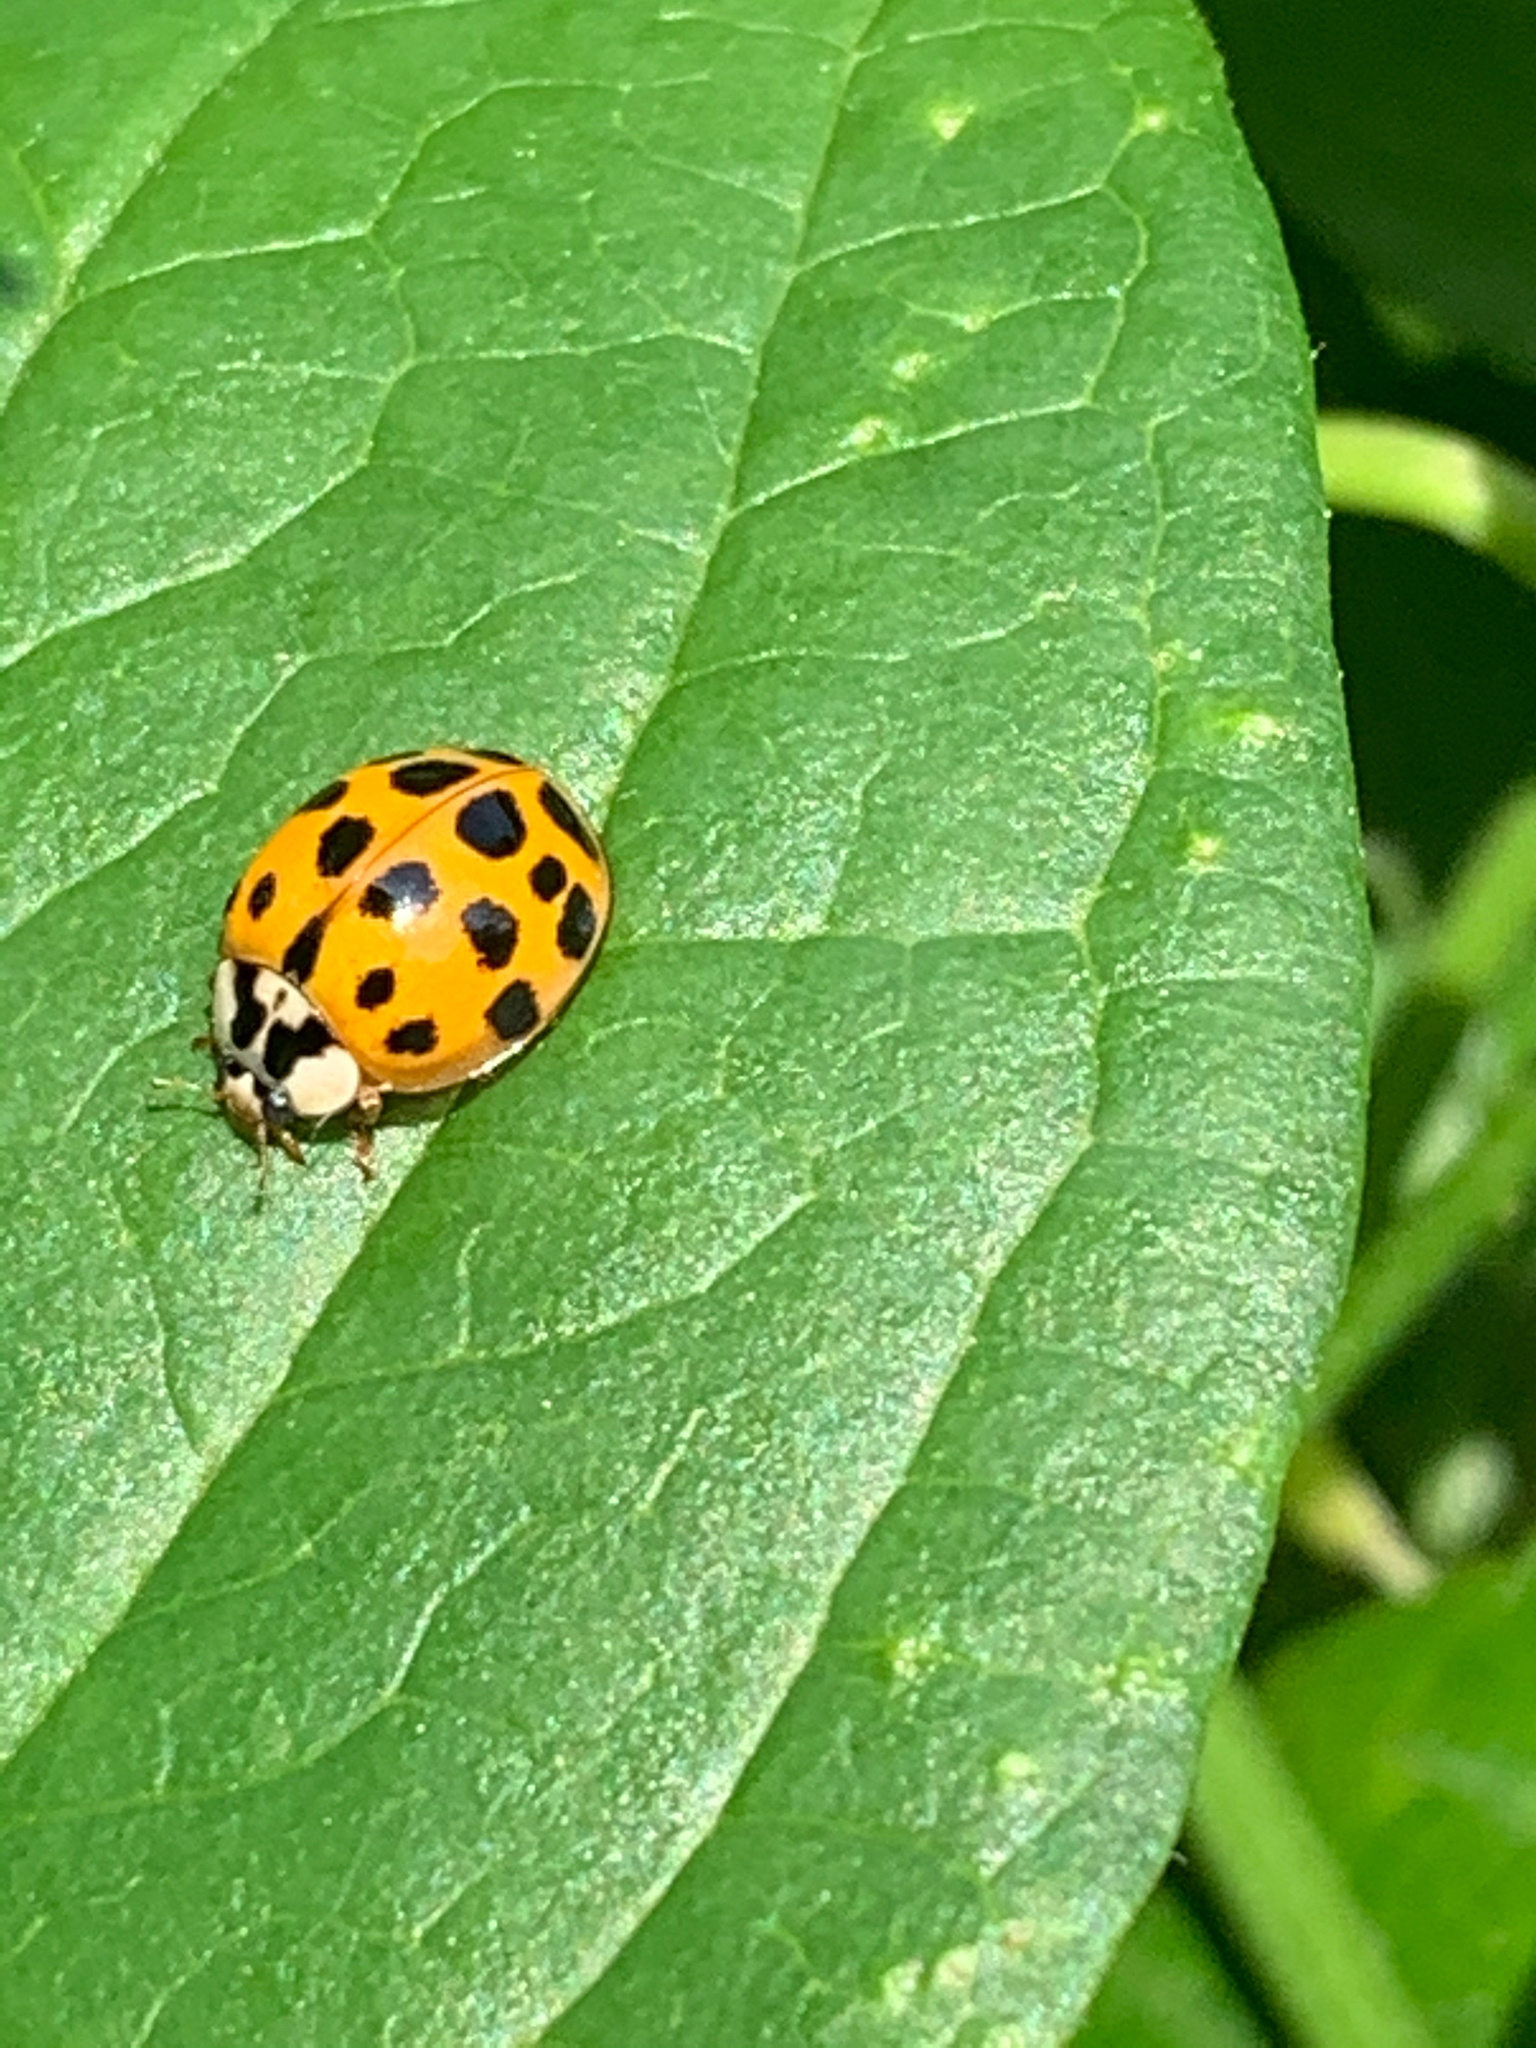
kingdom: Animalia
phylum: Arthropoda
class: Insecta
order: Coleoptera
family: Coccinellidae
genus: Harmonia
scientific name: Harmonia axyridis
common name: Harlequin ladybird
